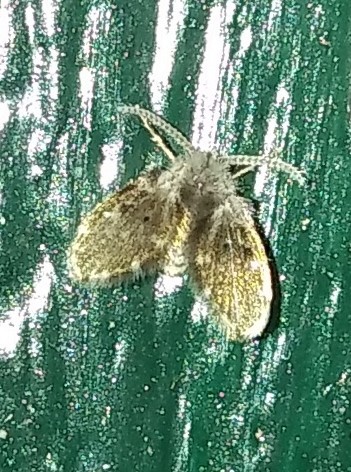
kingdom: Animalia
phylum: Arthropoda
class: Insecta
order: Diptera
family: Psychodidae
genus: Clogmia
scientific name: Clogmia albipunctatus
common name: White-spotted moth fly
